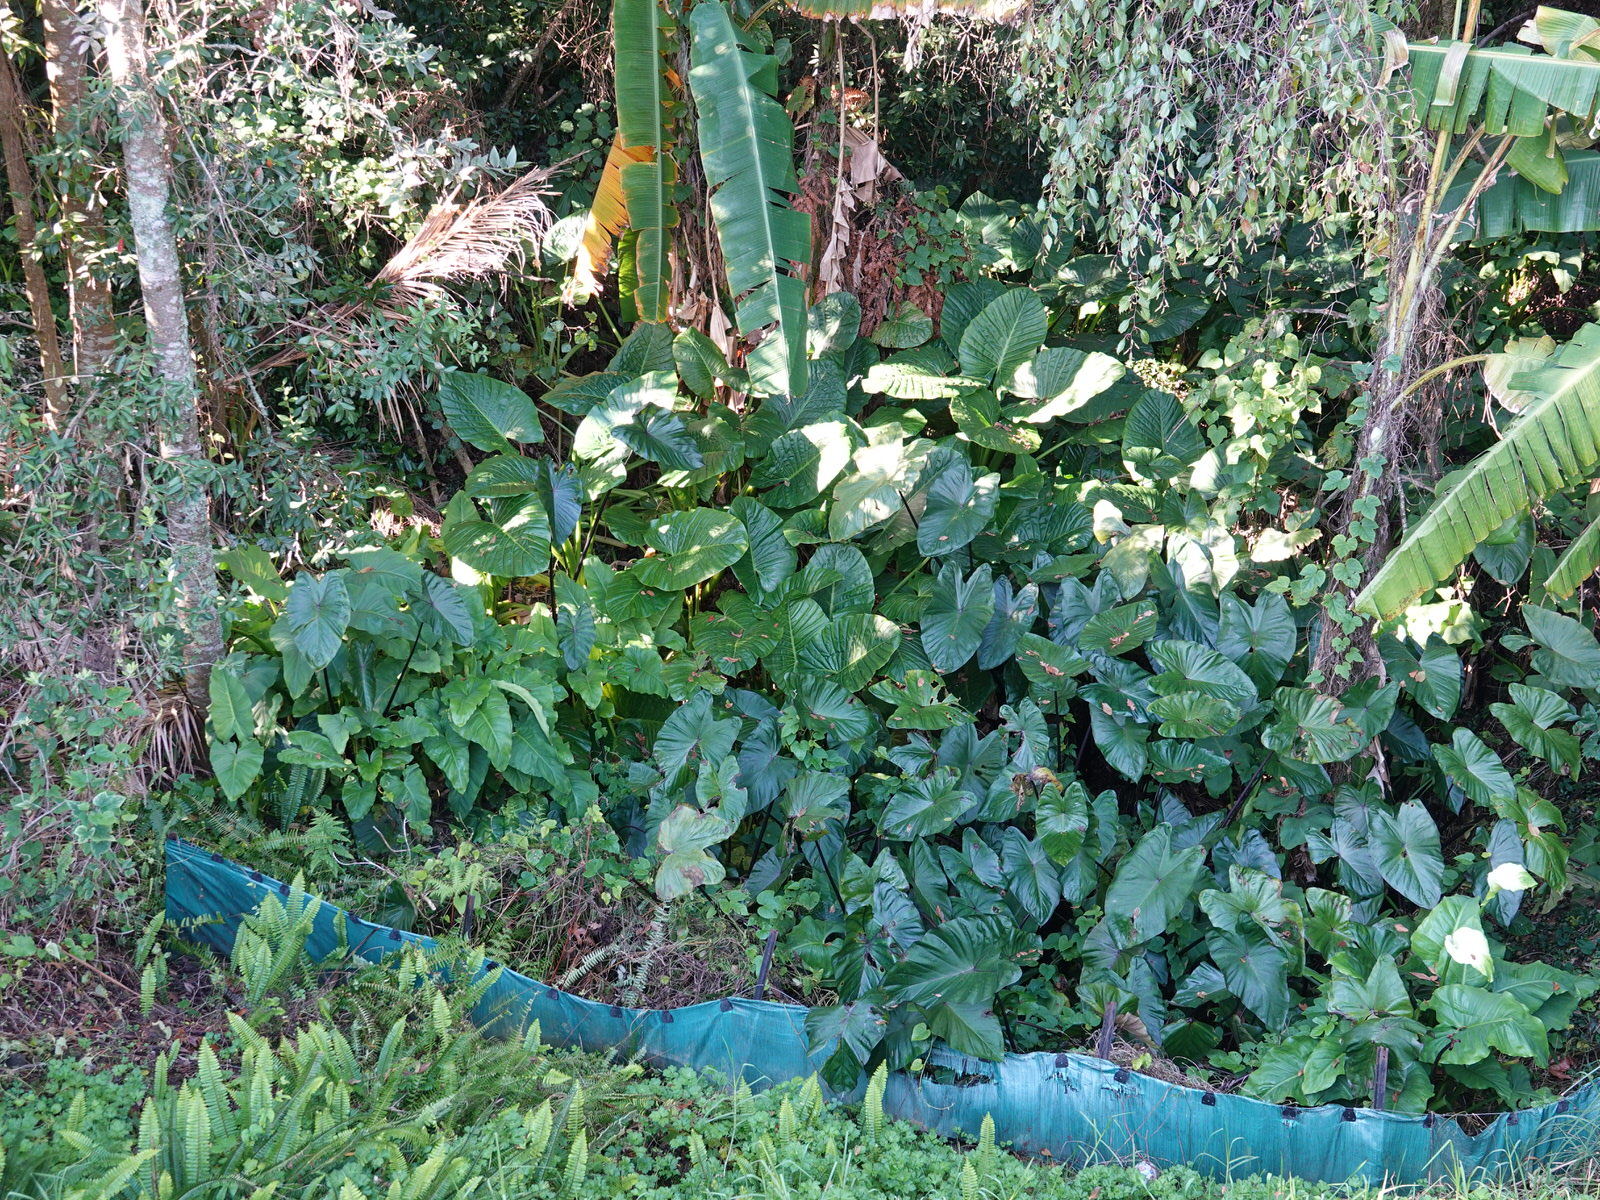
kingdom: Plantae
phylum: Tracheophyta
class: Liliopsida
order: Alismatales
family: Araceae
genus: Colocasia
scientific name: Colocasia esculenta
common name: Taro
